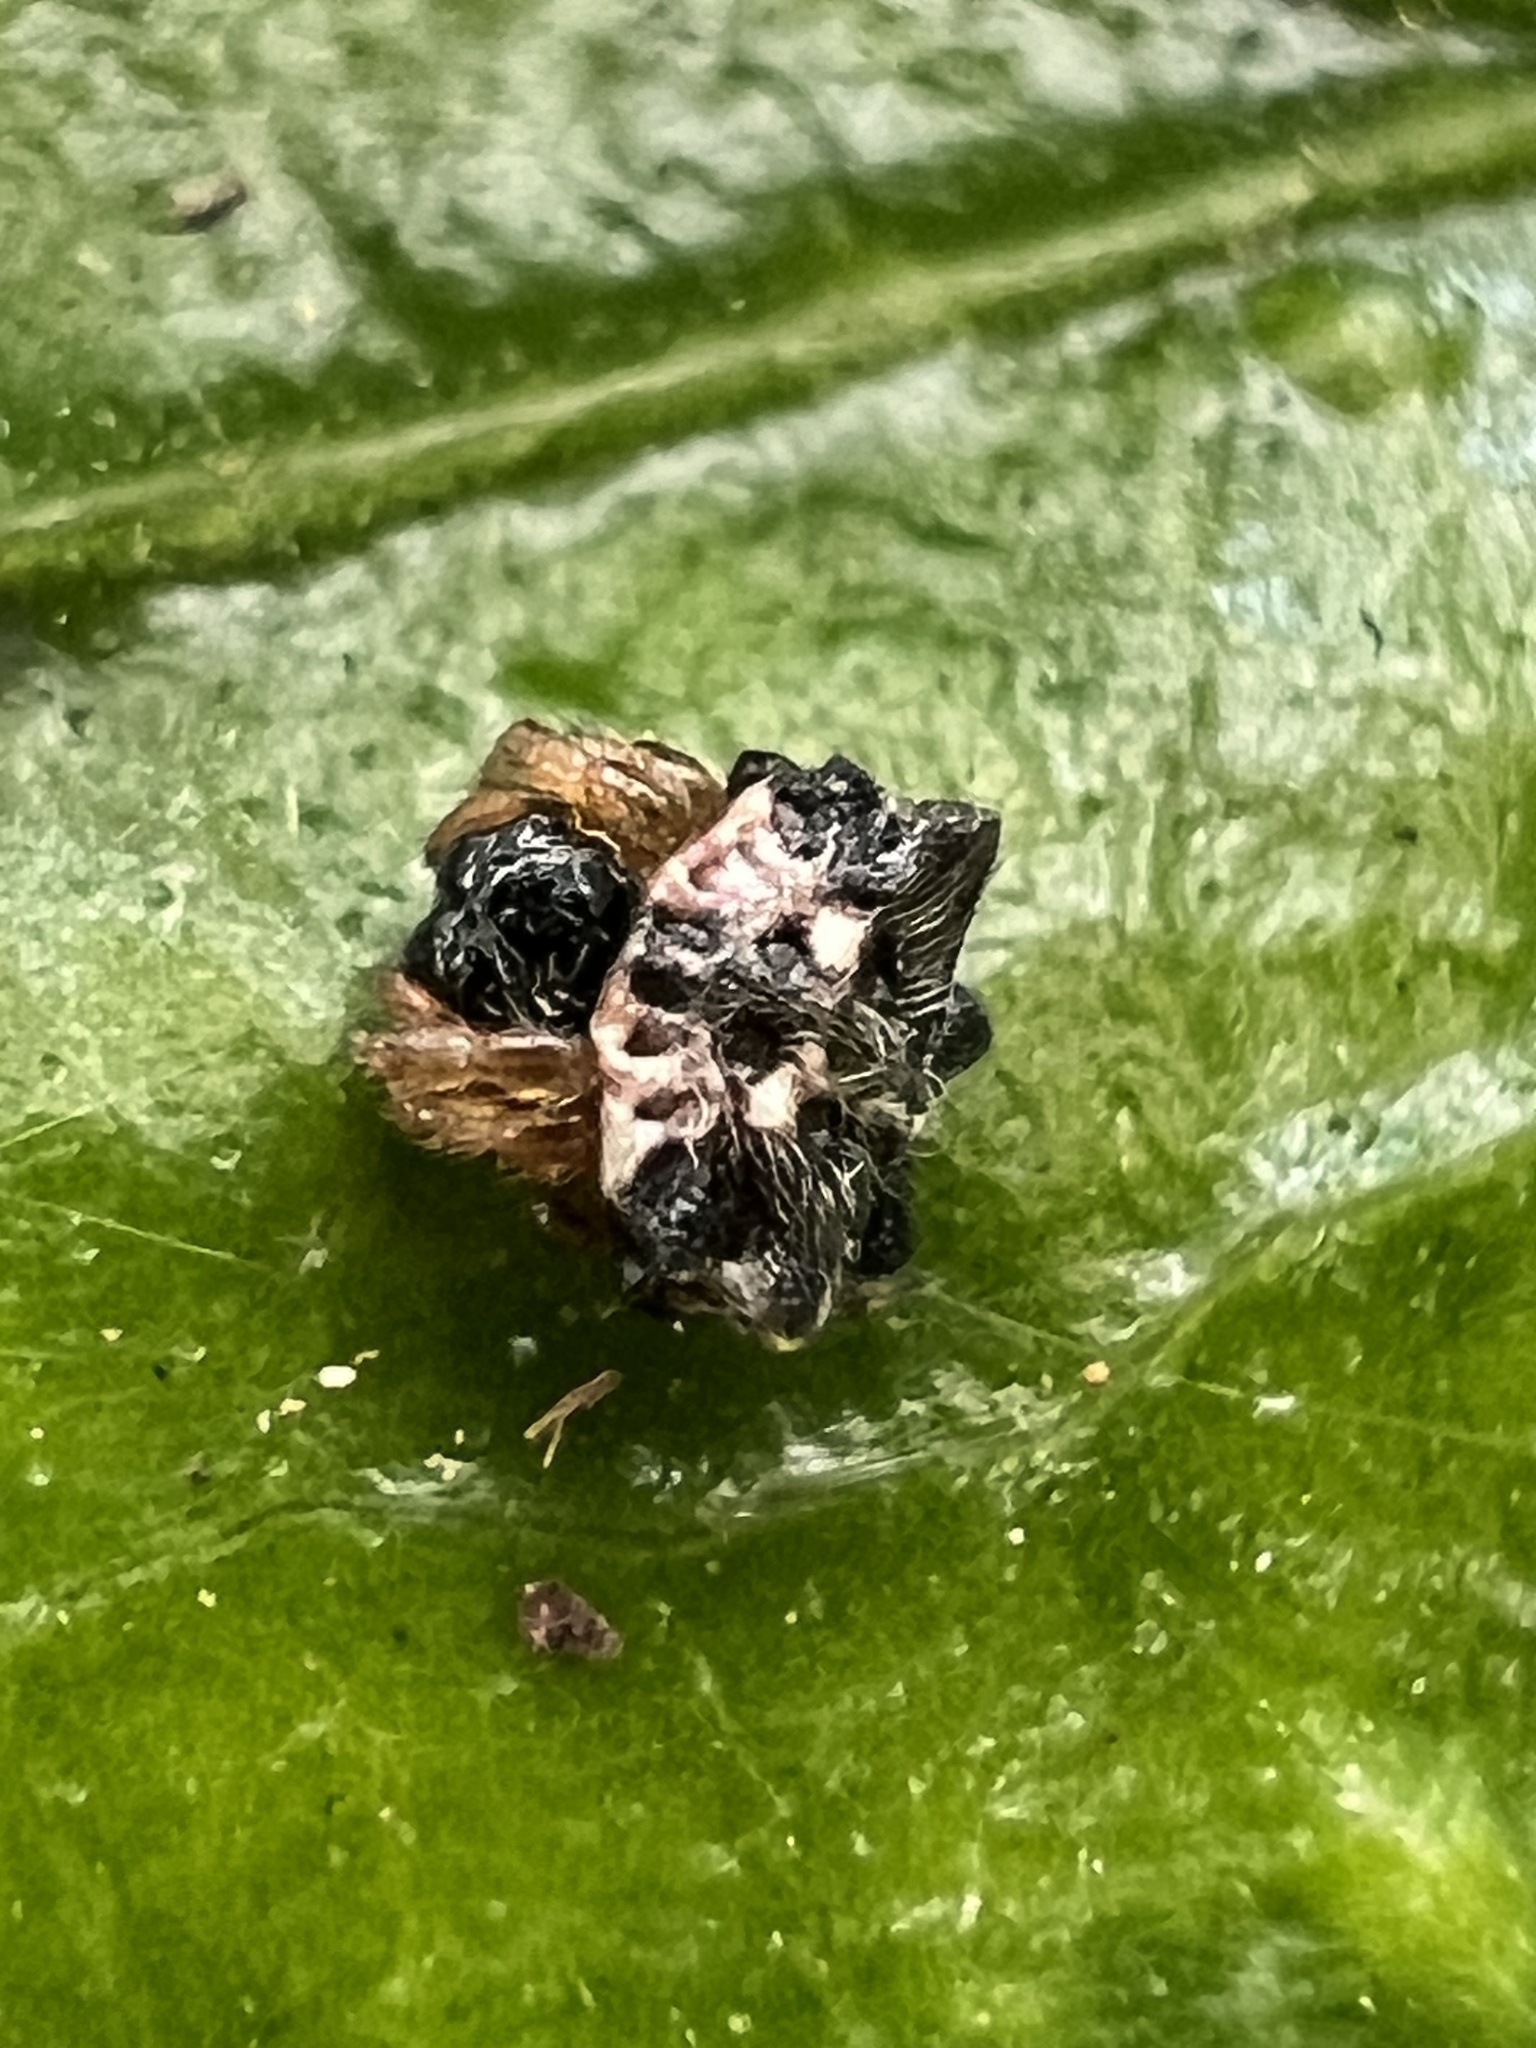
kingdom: Animalia
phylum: Arthropoda
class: Arachnida
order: Araneae
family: Araneidae
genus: Thelacantha
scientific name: Thelacantha brevispina
